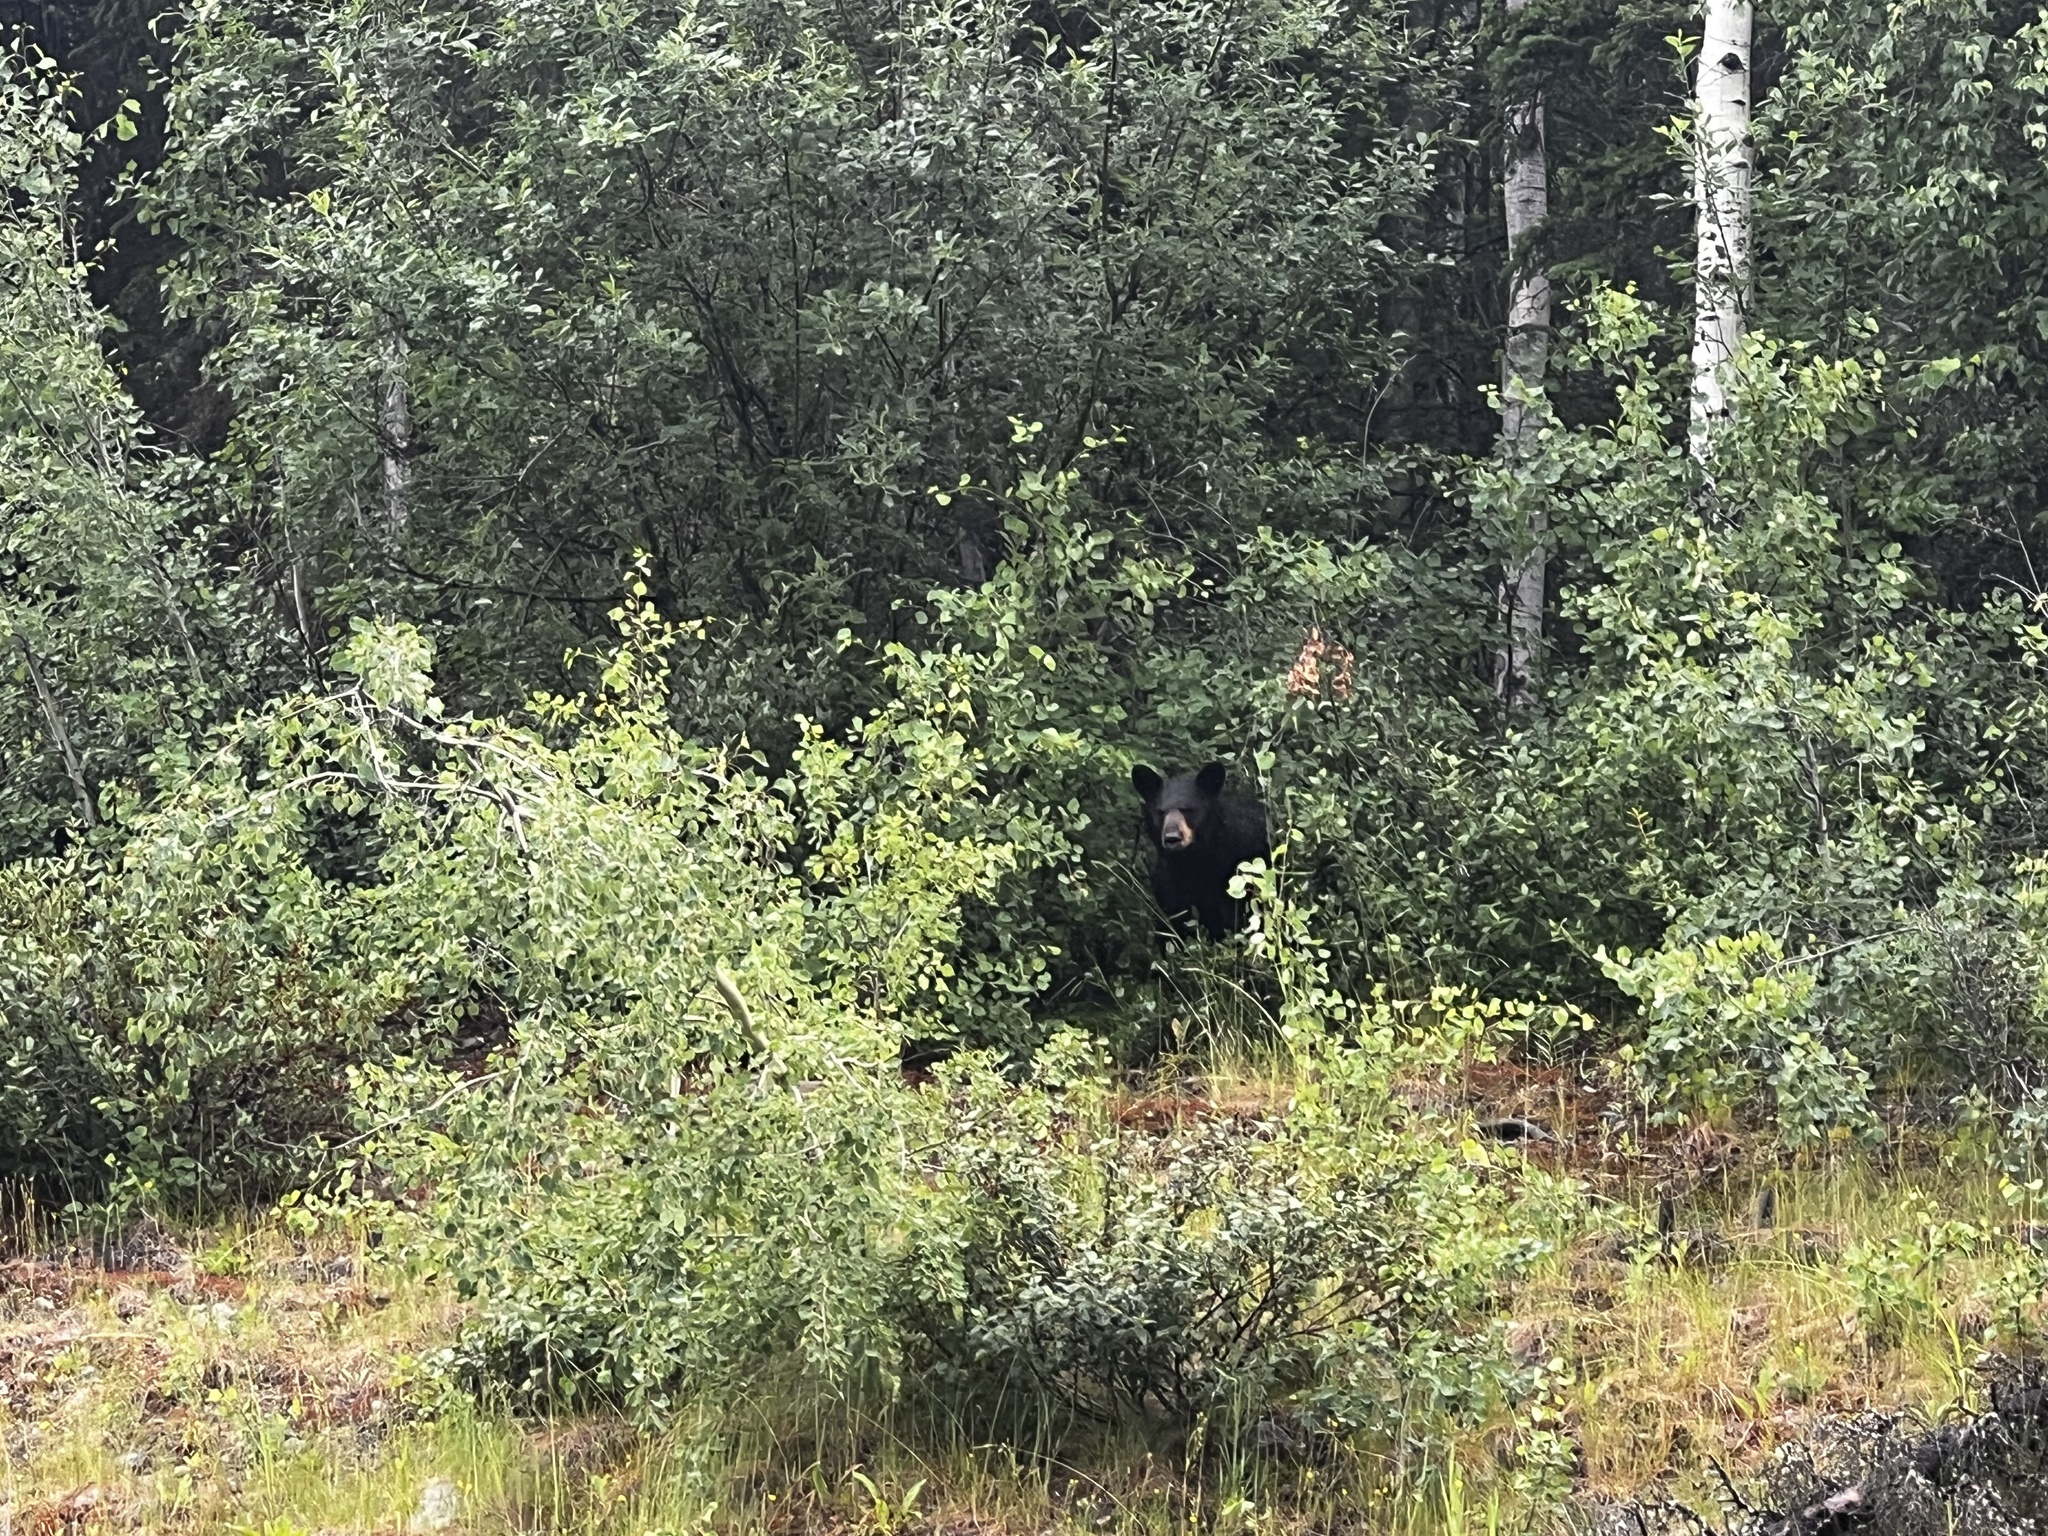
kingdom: Animalia
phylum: Chordata
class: Mammalia
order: Carnivora
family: Ursidae
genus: Ursus
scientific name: Ursus americanus
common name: American black bear
